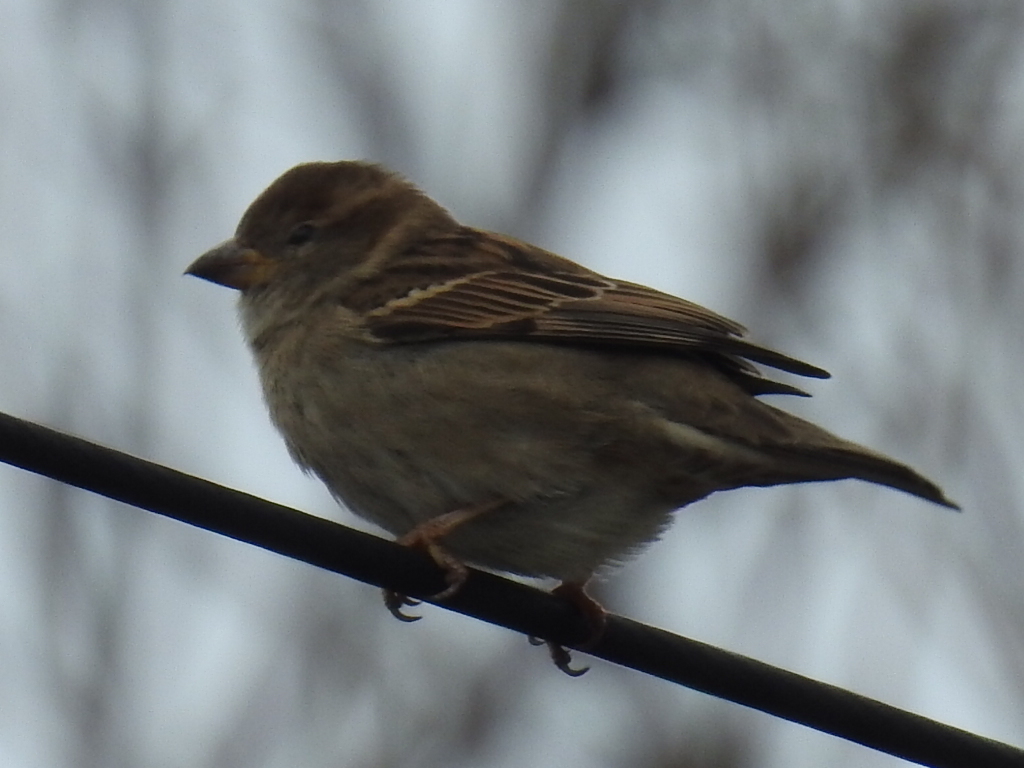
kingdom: Animalia
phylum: Chordata
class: Aves
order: Passeriformes
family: Passeridae
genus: Passer
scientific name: Passer domesticus
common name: House sparrow
